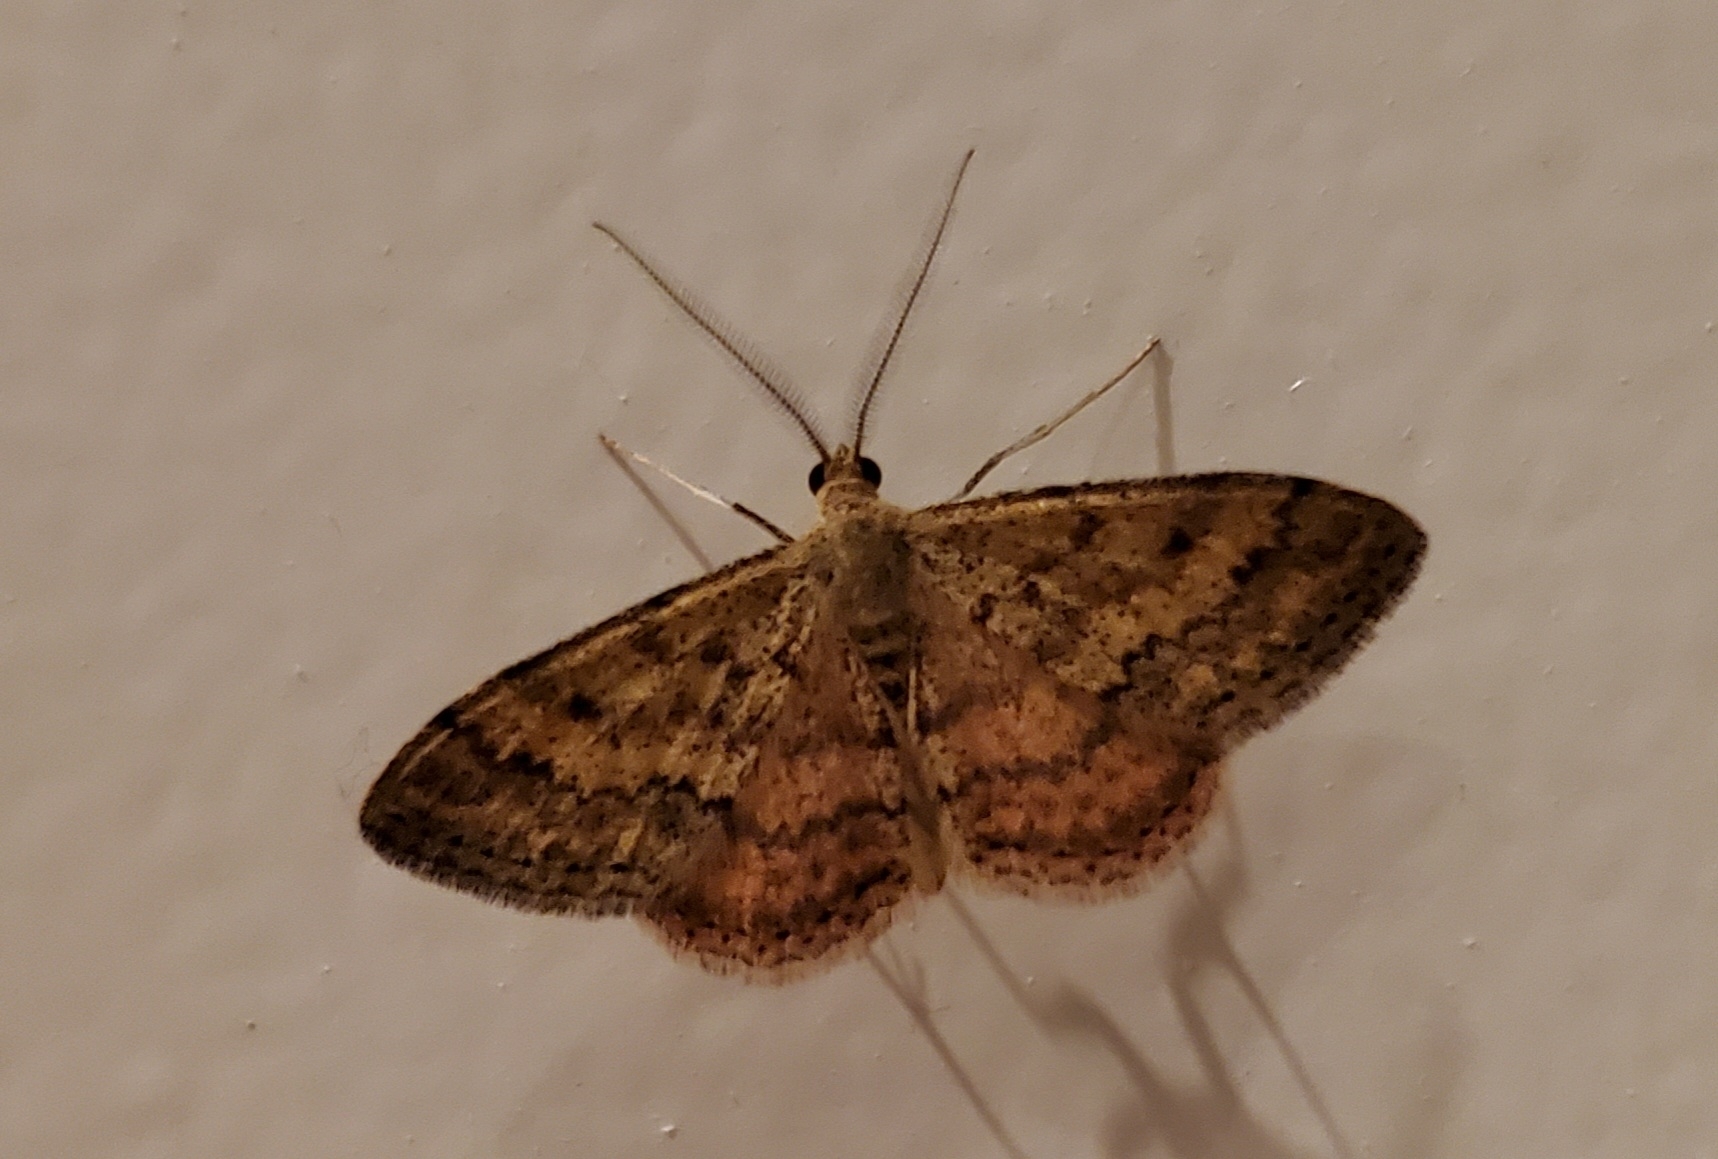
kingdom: Animalia
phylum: Arthropoda
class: Insecta
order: Lepidoptera
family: Geometridae
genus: Scopula
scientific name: Scopula rubraria
